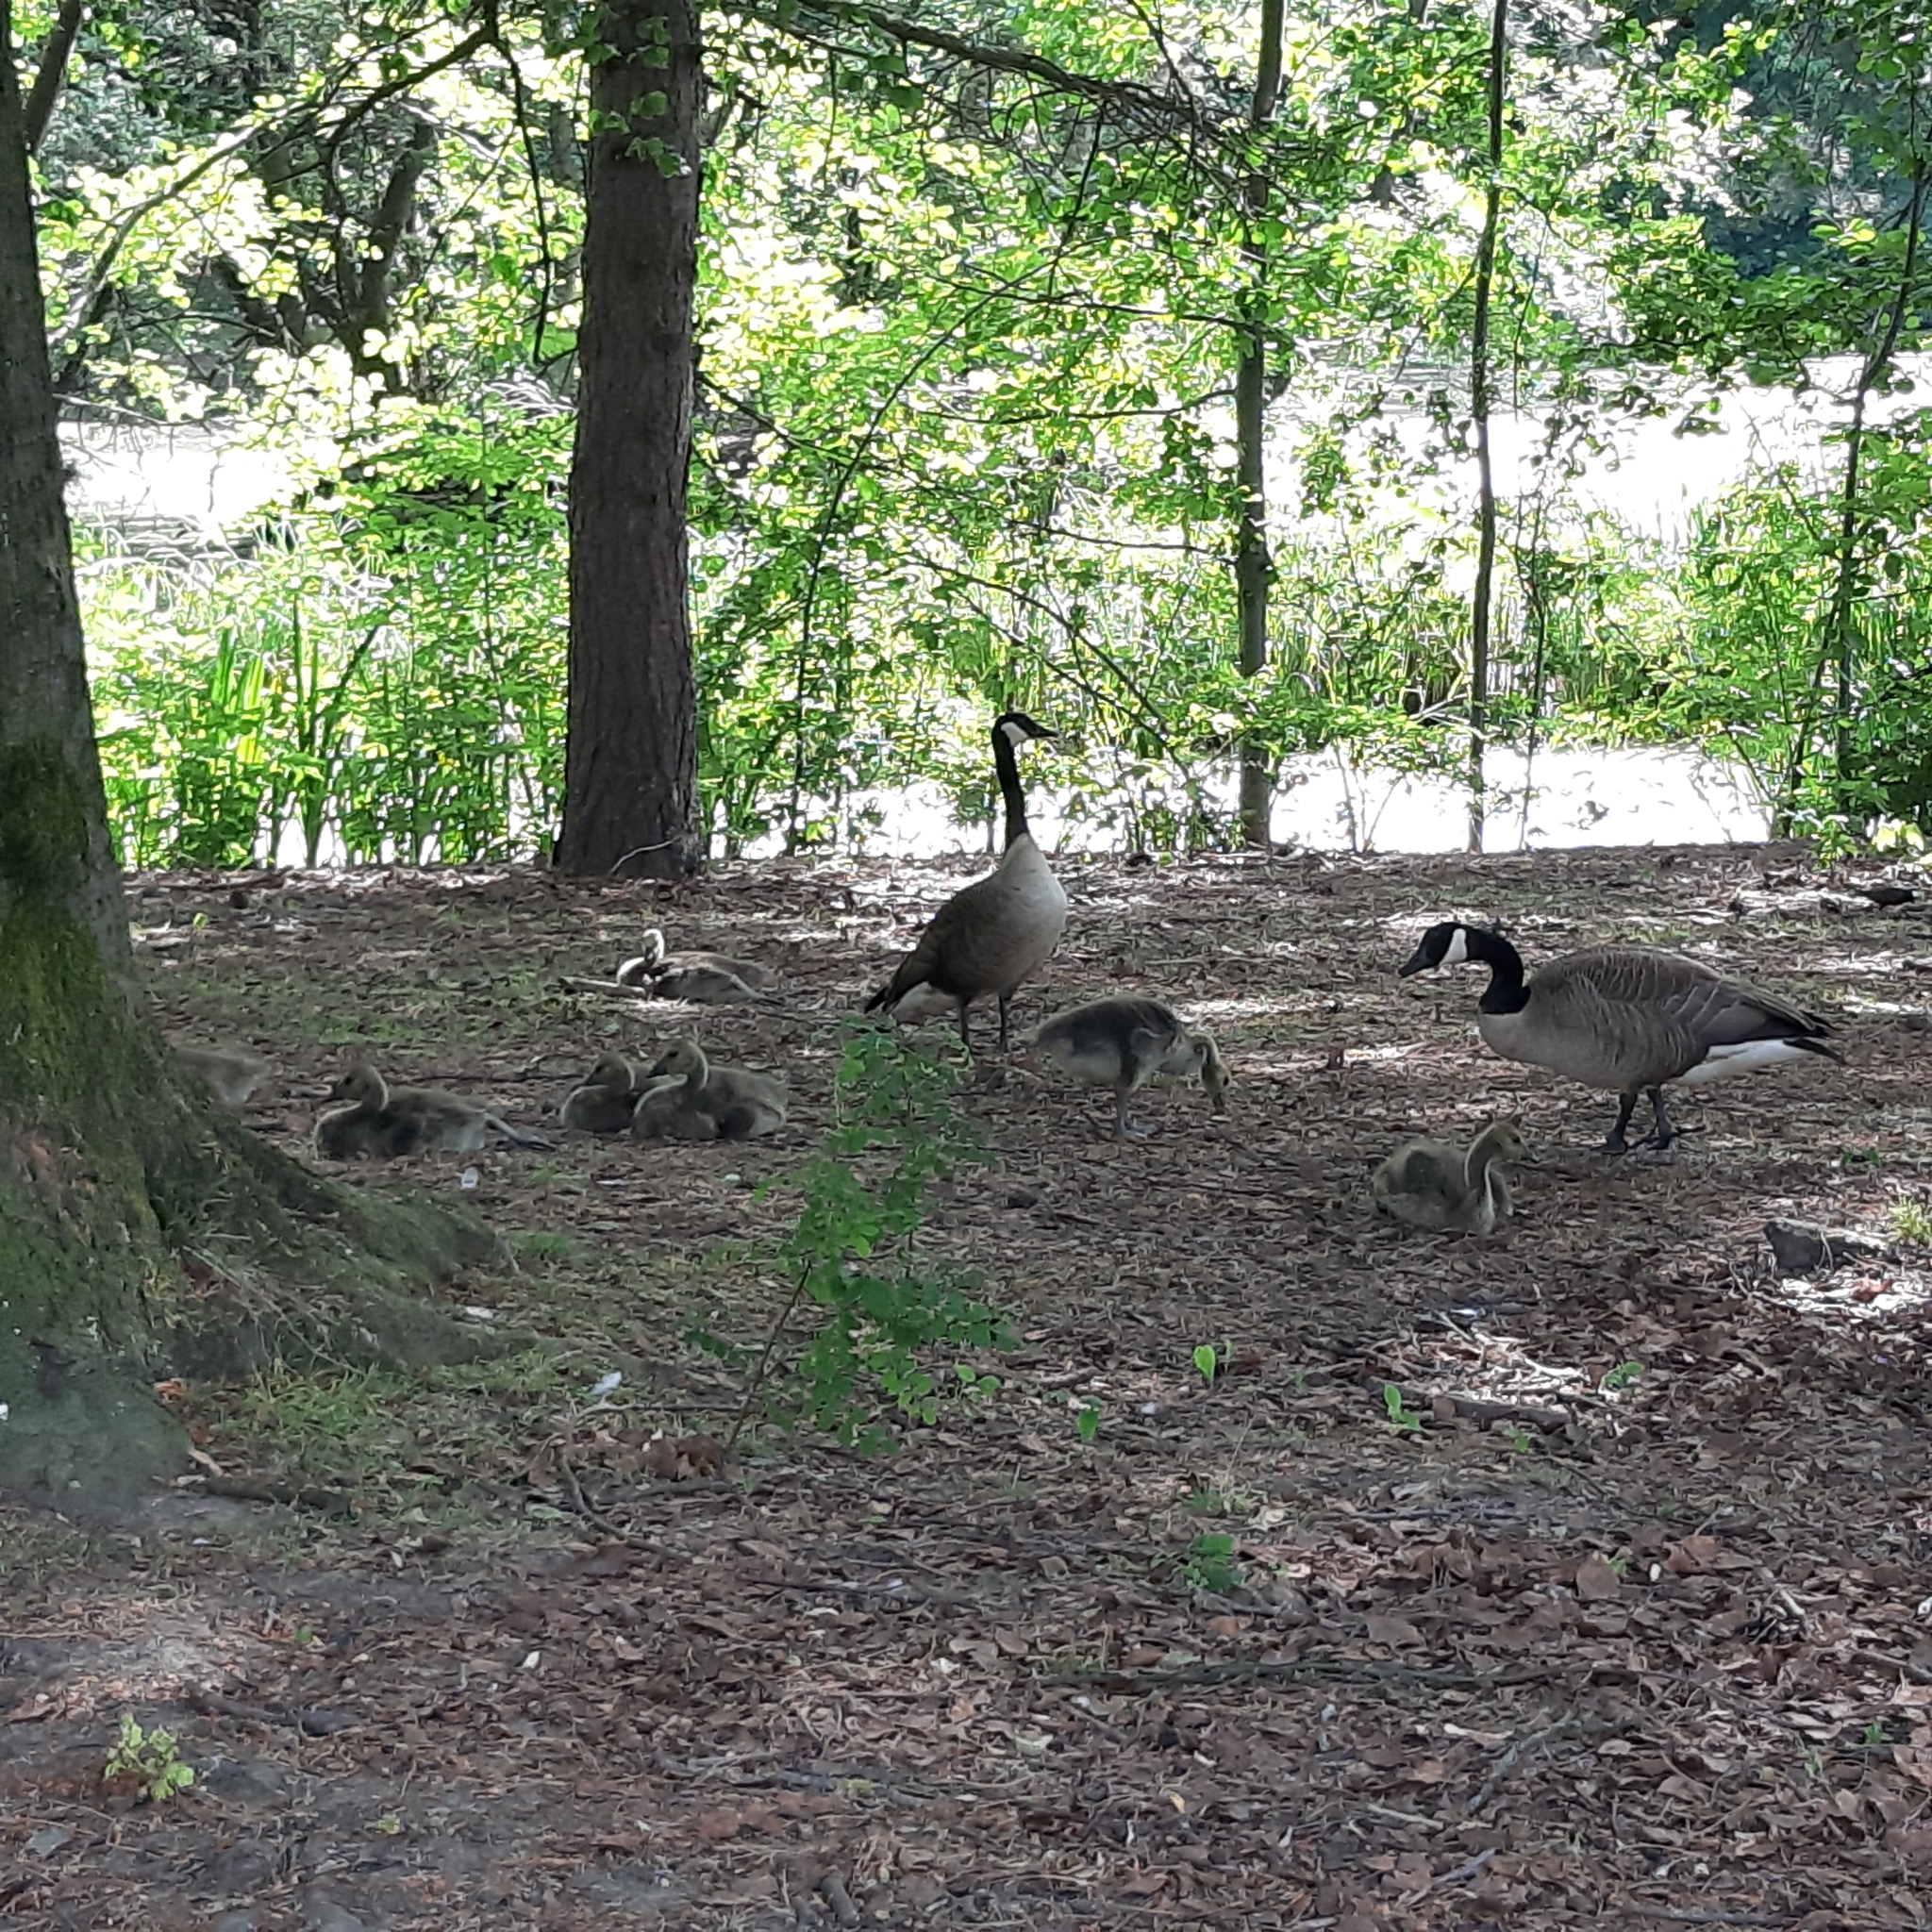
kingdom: Animalia
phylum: Chordata
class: Aves
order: Anseriformes
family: Anatidae
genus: Branta
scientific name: Branta canadensis
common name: Canada goose
